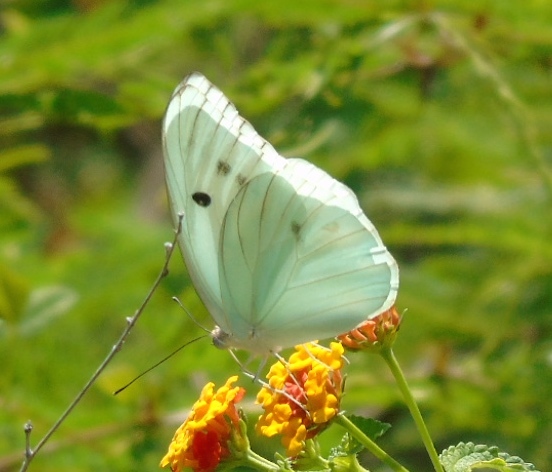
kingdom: Animalia
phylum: Arthropoda
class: Insecta
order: Lepidoptera
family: Pieridae
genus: Ganyra
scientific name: Ganyra josephina
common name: Giant white
